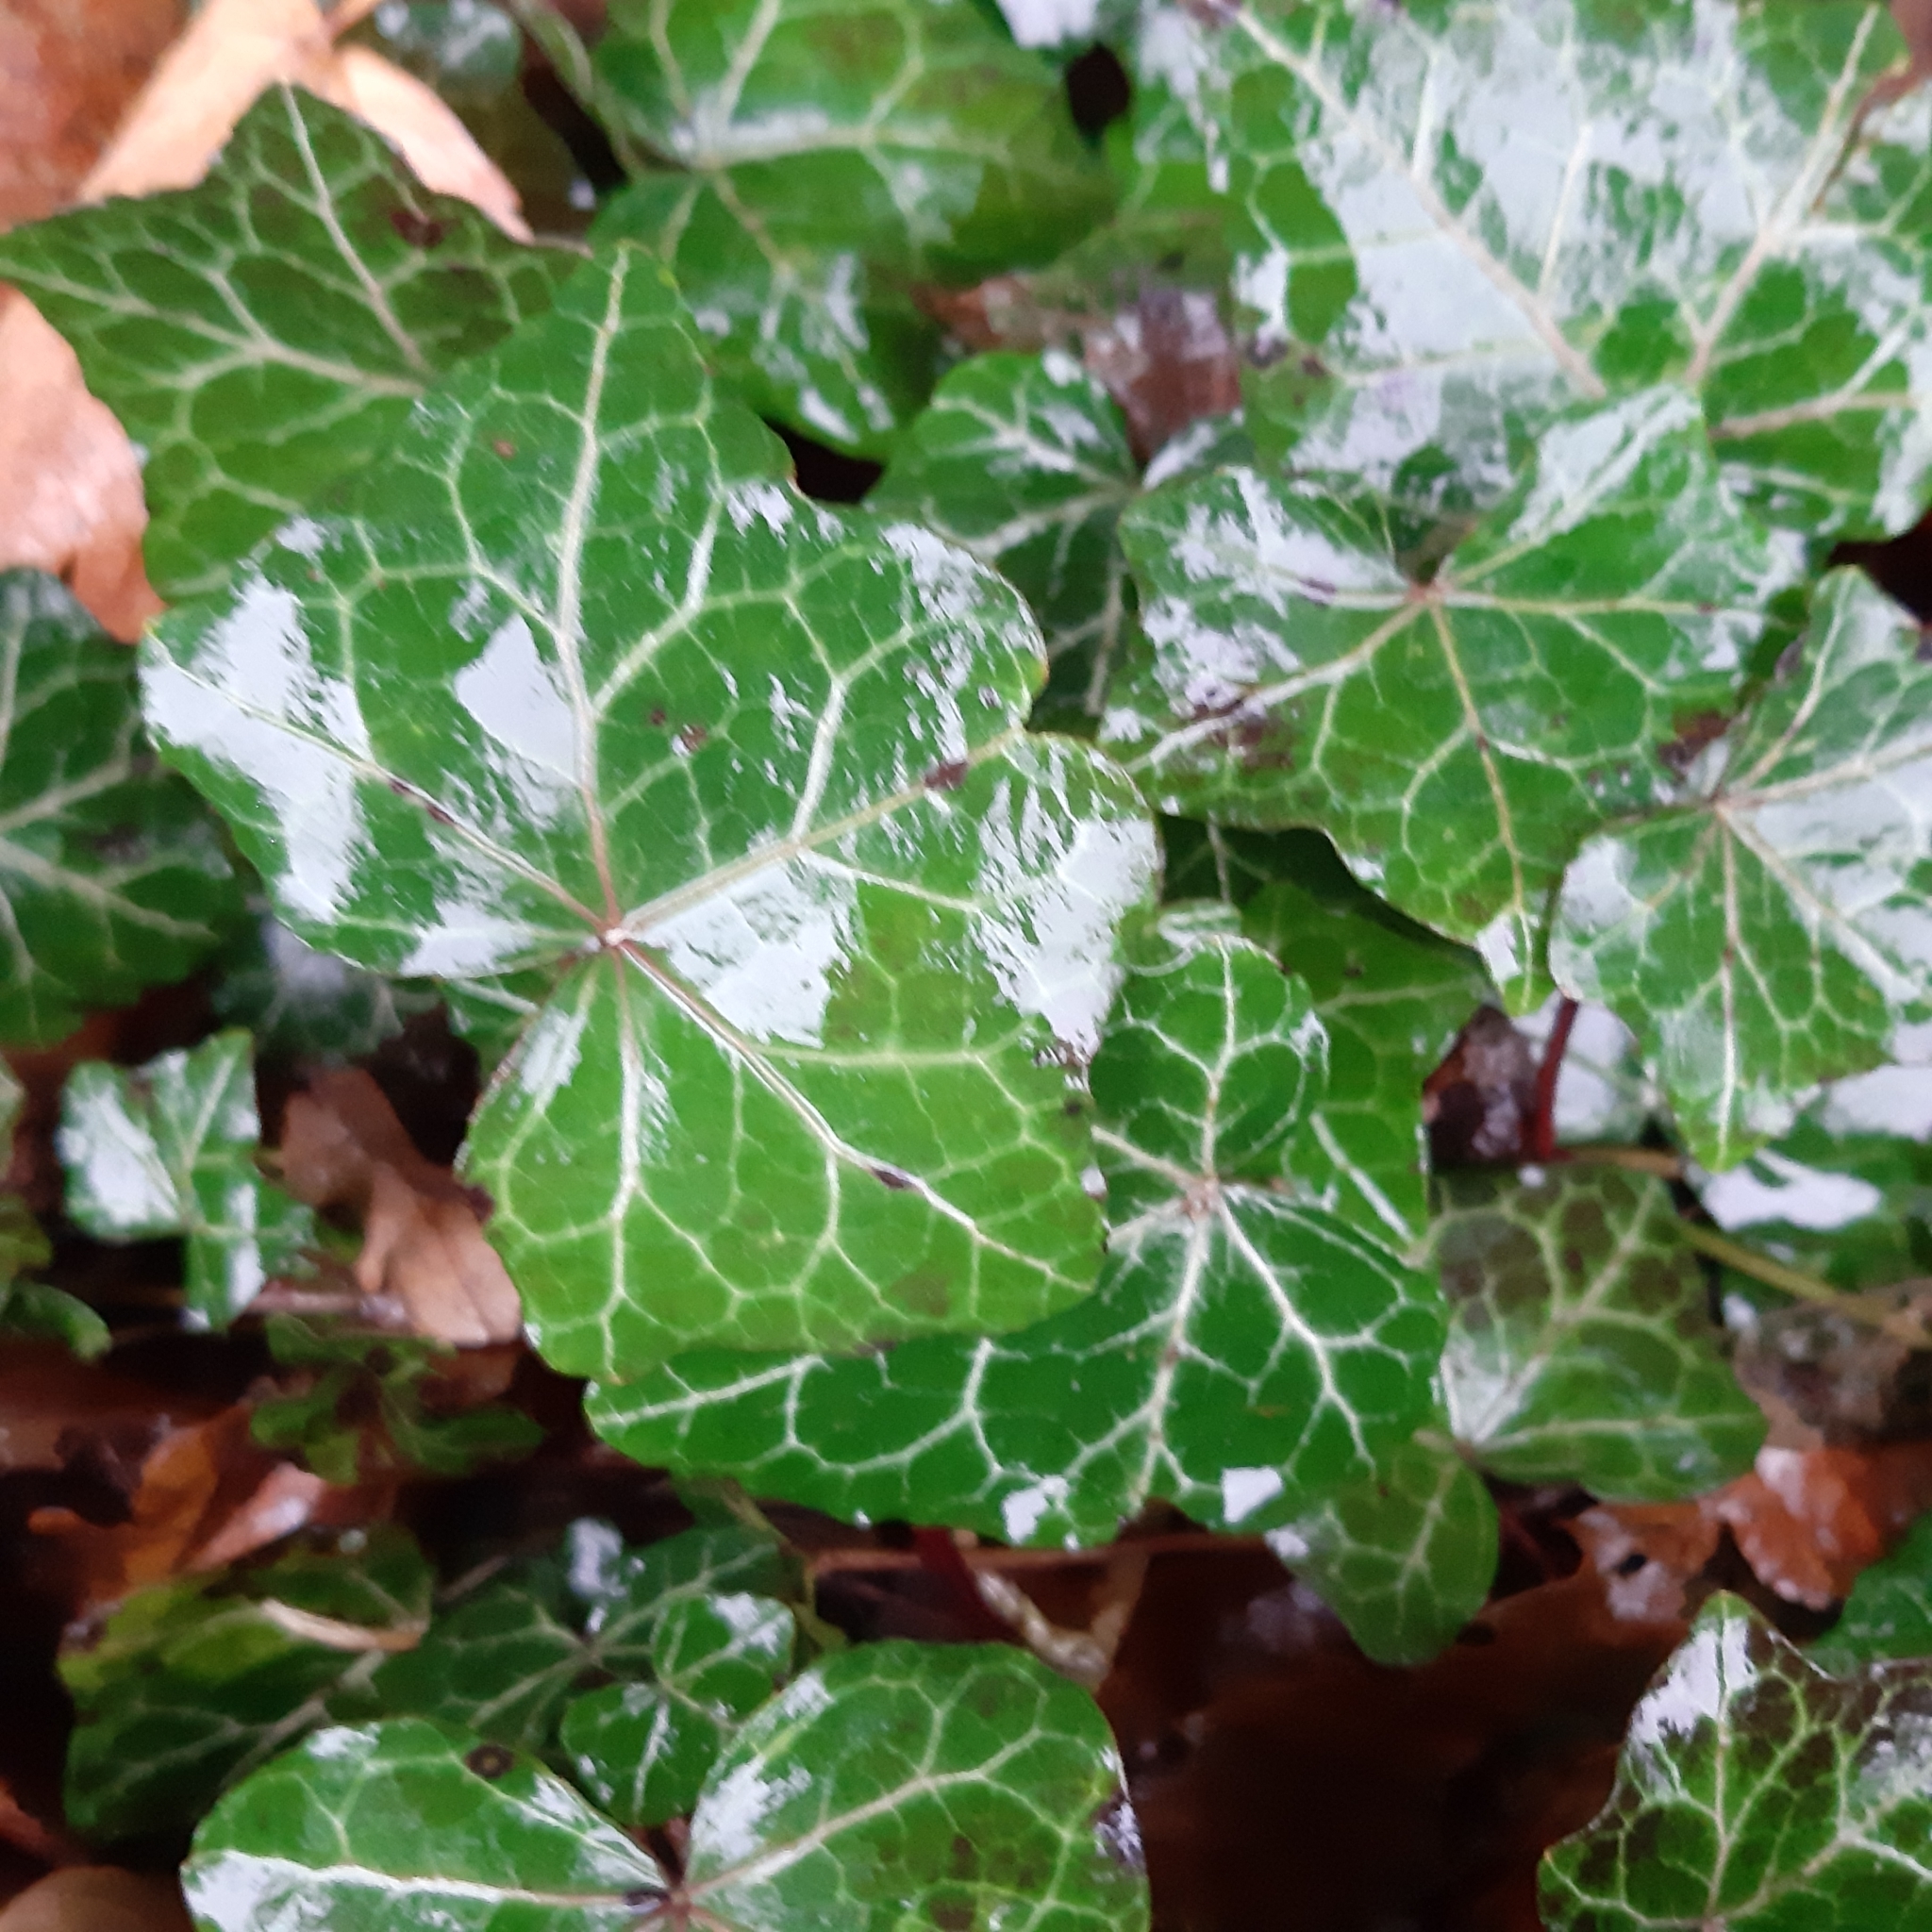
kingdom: Plantae
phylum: Tracheophyta
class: Magnoliopsida
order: Apiales
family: Araliaceae
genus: Hedera
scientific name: Hedera helix
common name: Ivy
